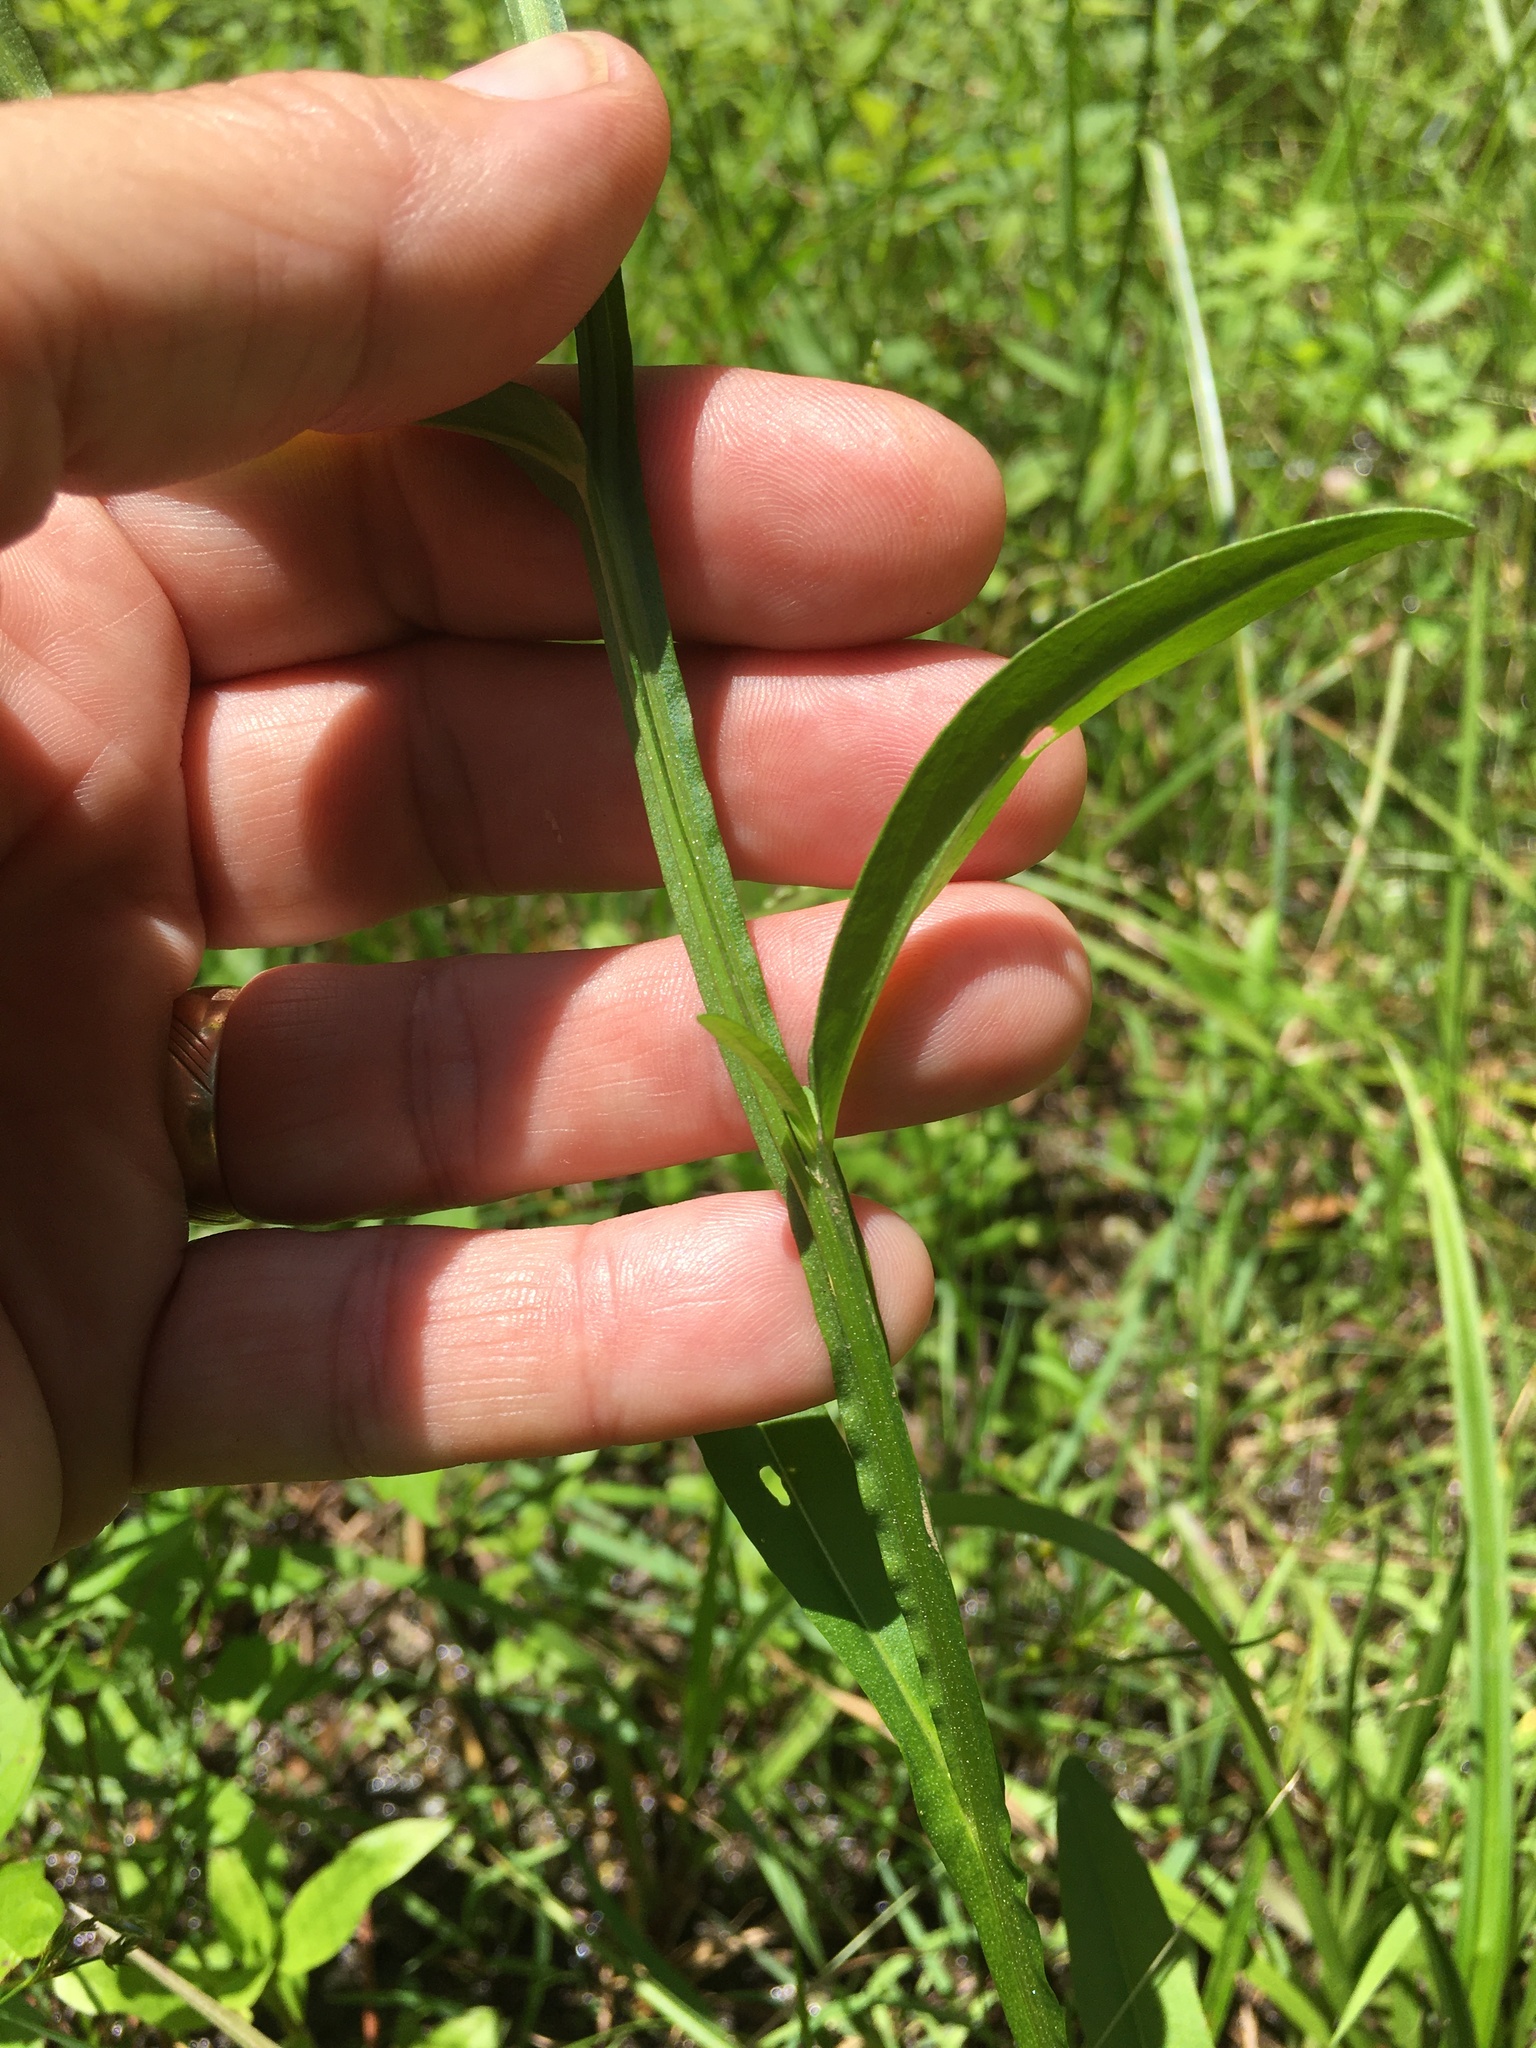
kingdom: Plantae
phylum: Tracheophyta
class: Magnoliopsida
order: Asterales
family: Asteraceae
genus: Helenium
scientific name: Helenium flexuosum
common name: Naked-flowered sneezeweed
